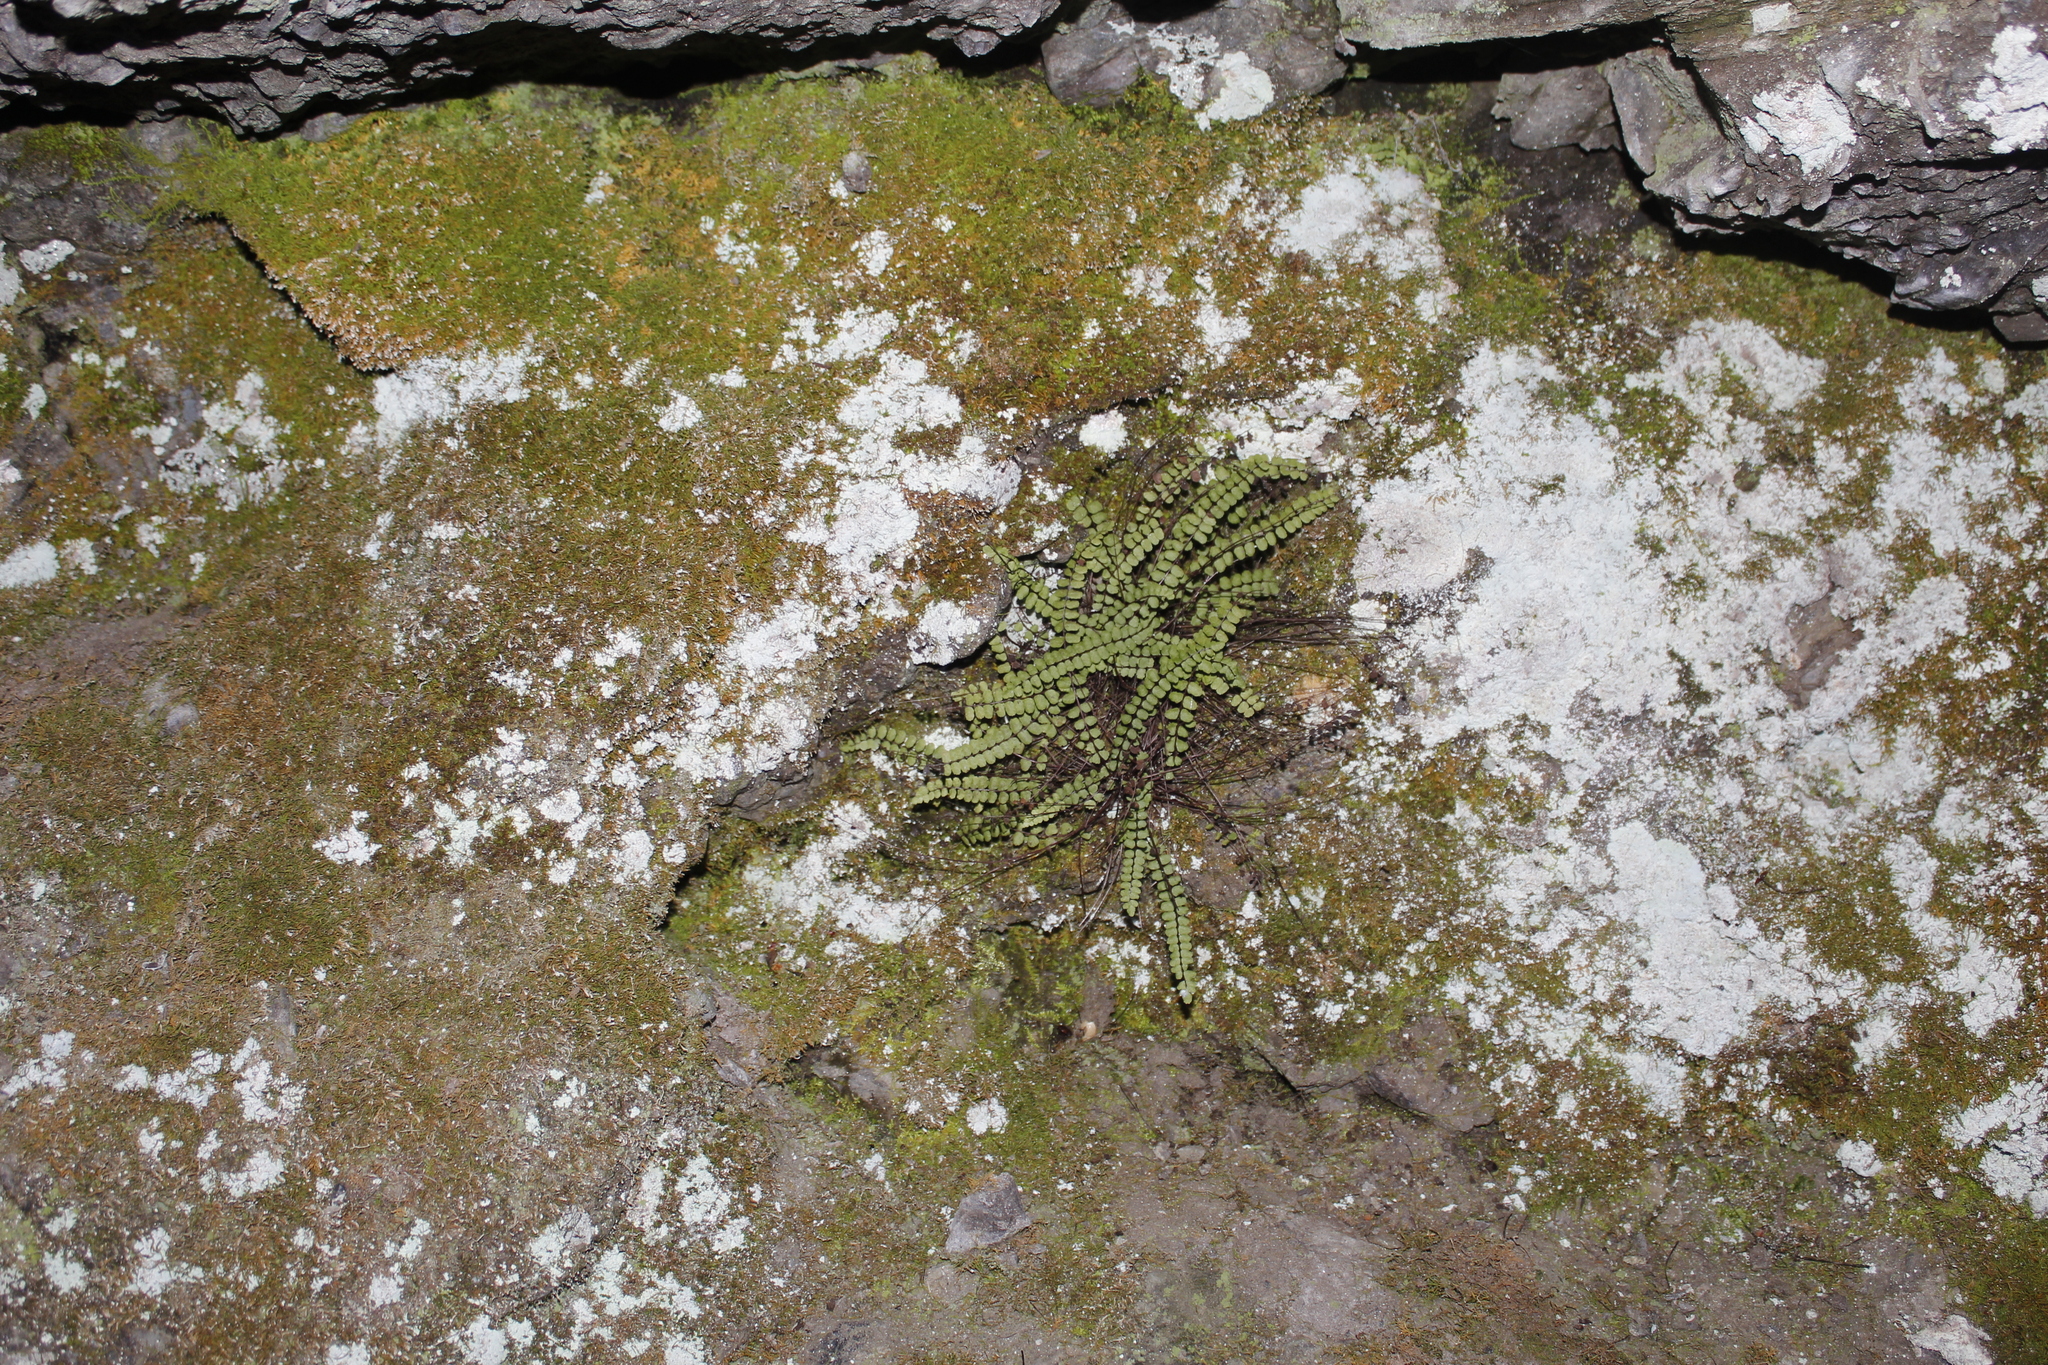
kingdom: Plantae
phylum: Tracheophyta
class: Polypodiopsida
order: Polypodiales
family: Aspleniaceae
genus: Asplenium
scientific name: Asplenium trichomanes
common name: Maidenhair spleenwort
